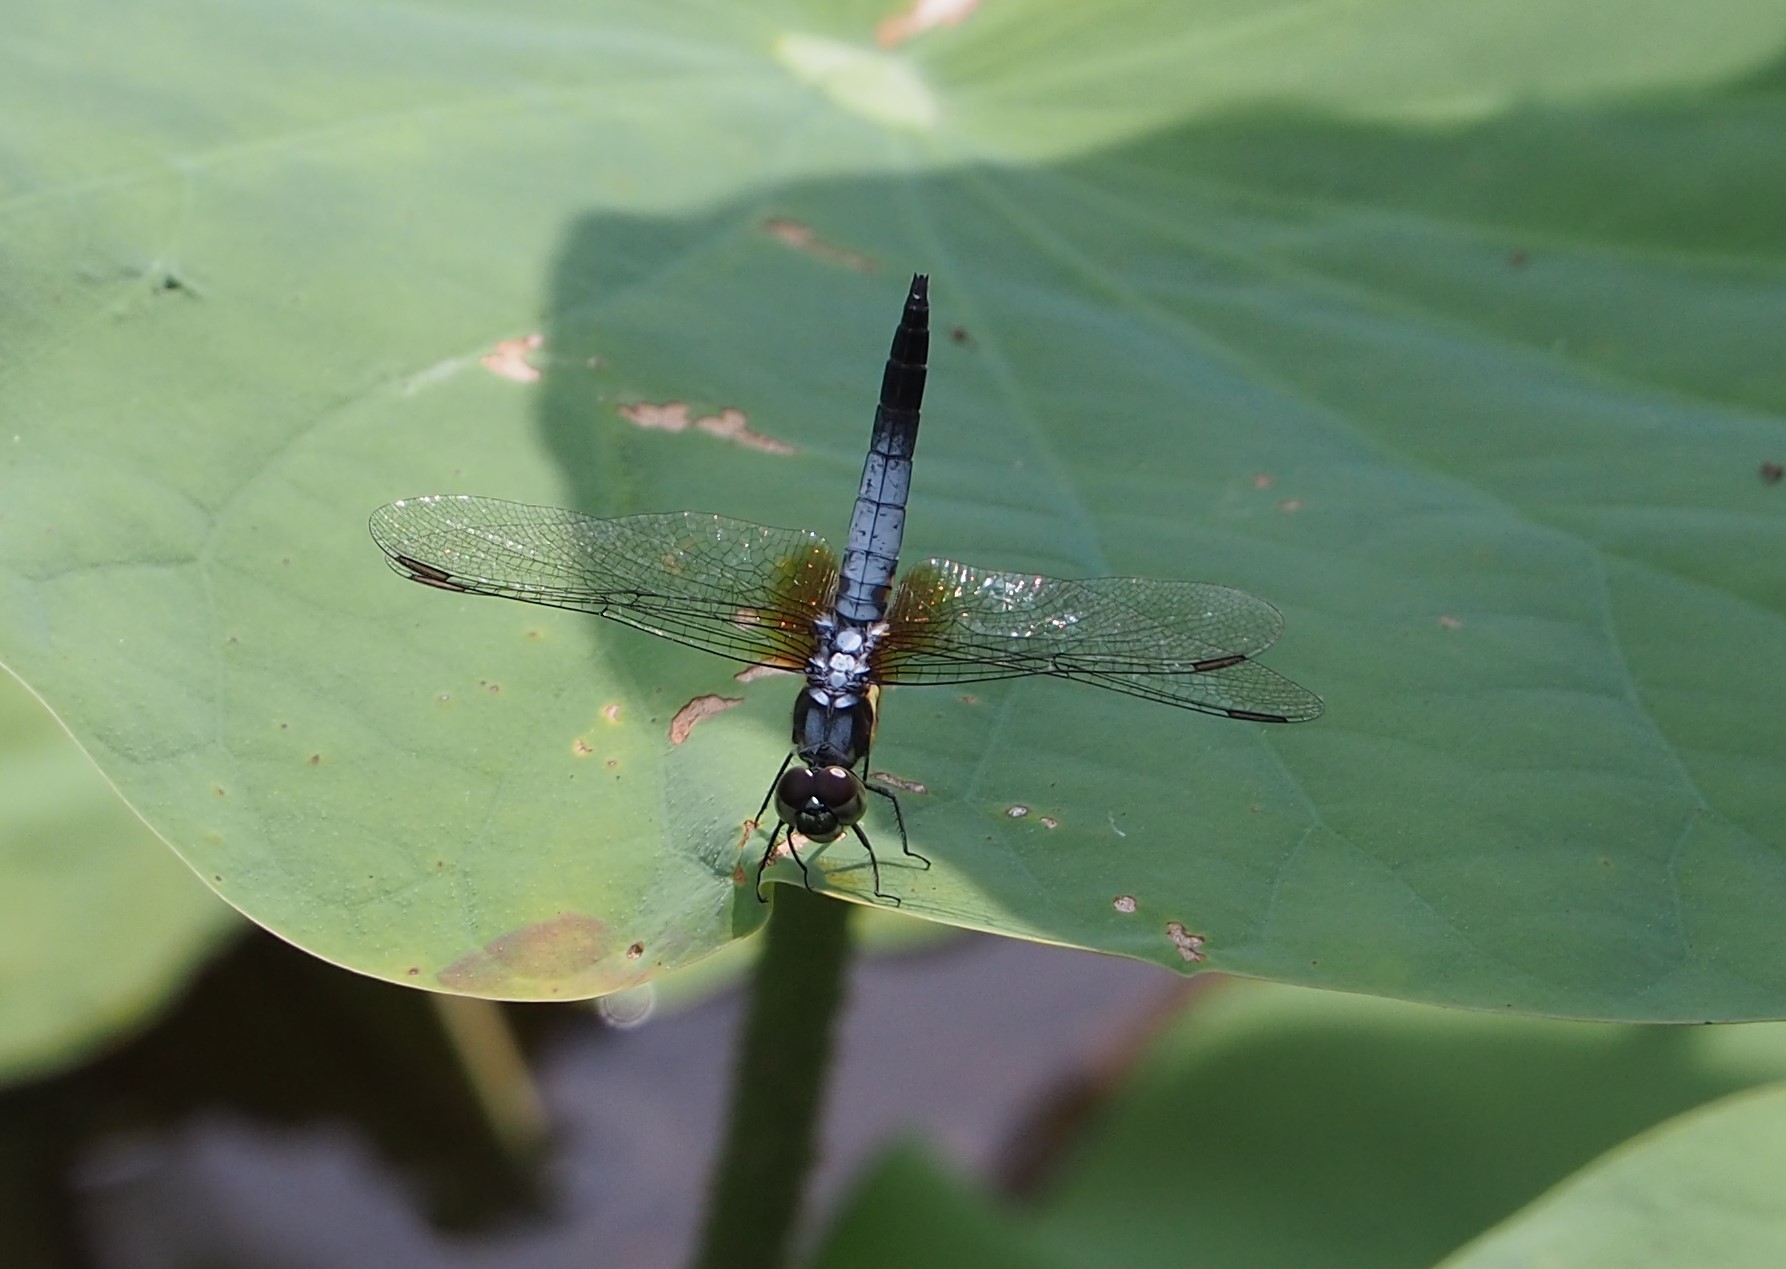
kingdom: Animalia
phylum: Arthropoda
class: Insecta
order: Odonata
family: Libellulidae
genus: Brachydiplax
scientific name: Brachydiplax chalybea
